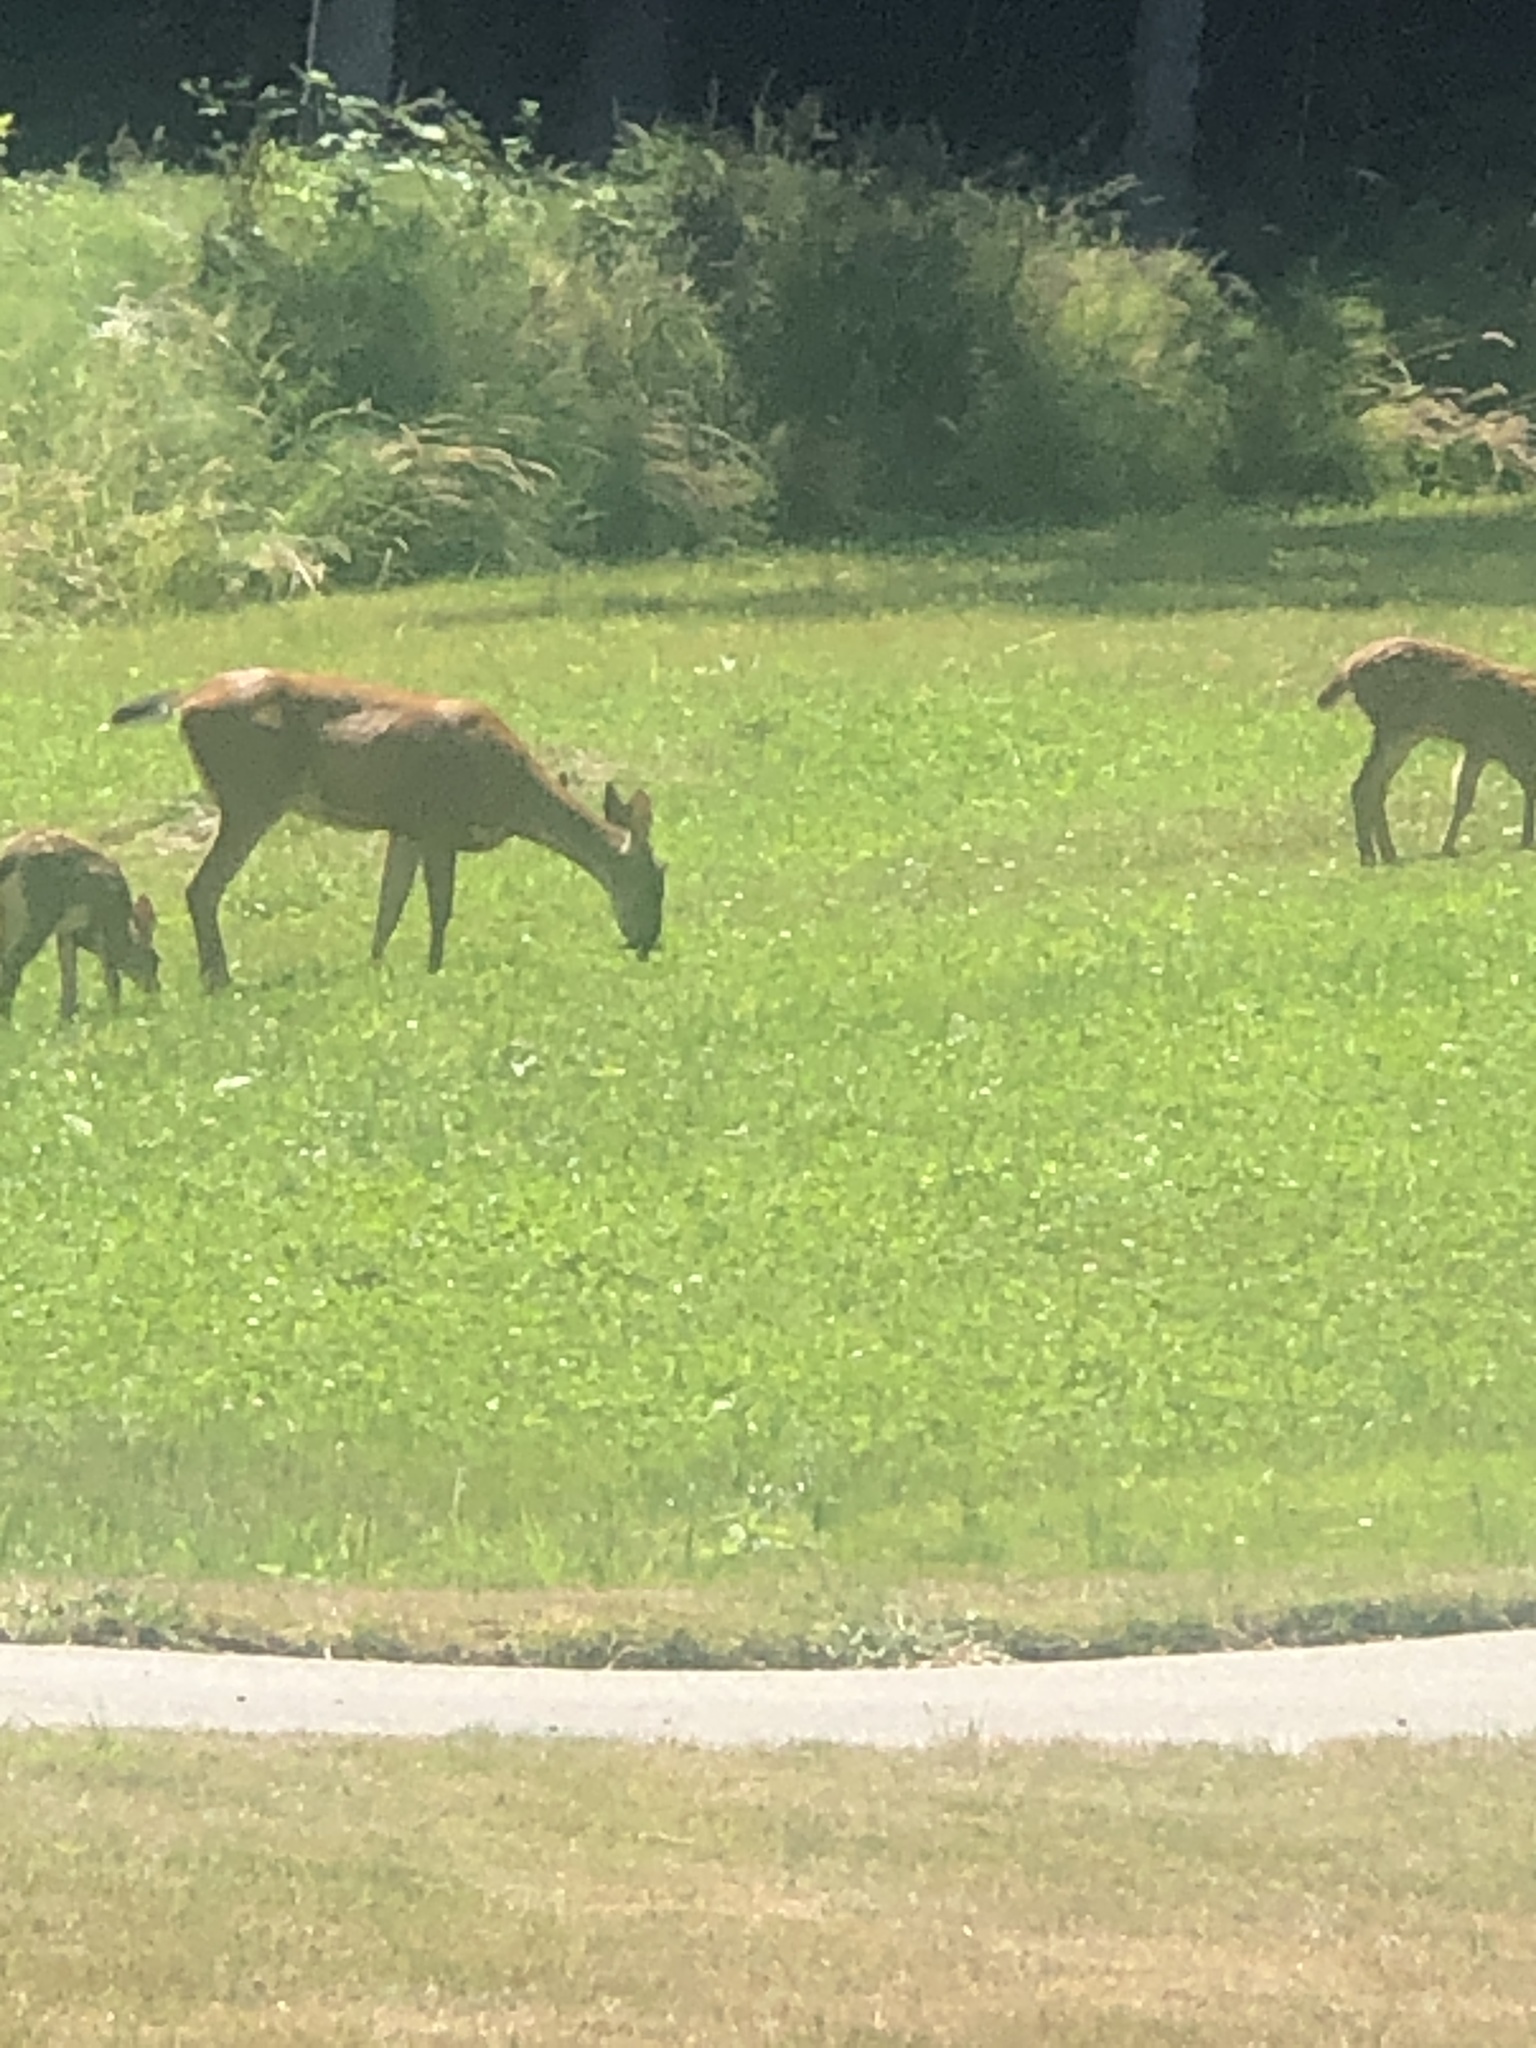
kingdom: Animalia
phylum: Chordata
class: Mammalia
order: Artiodactyla
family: Cervidae
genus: Odocoileus
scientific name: Odocoileus hemionus
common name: Mule deer
